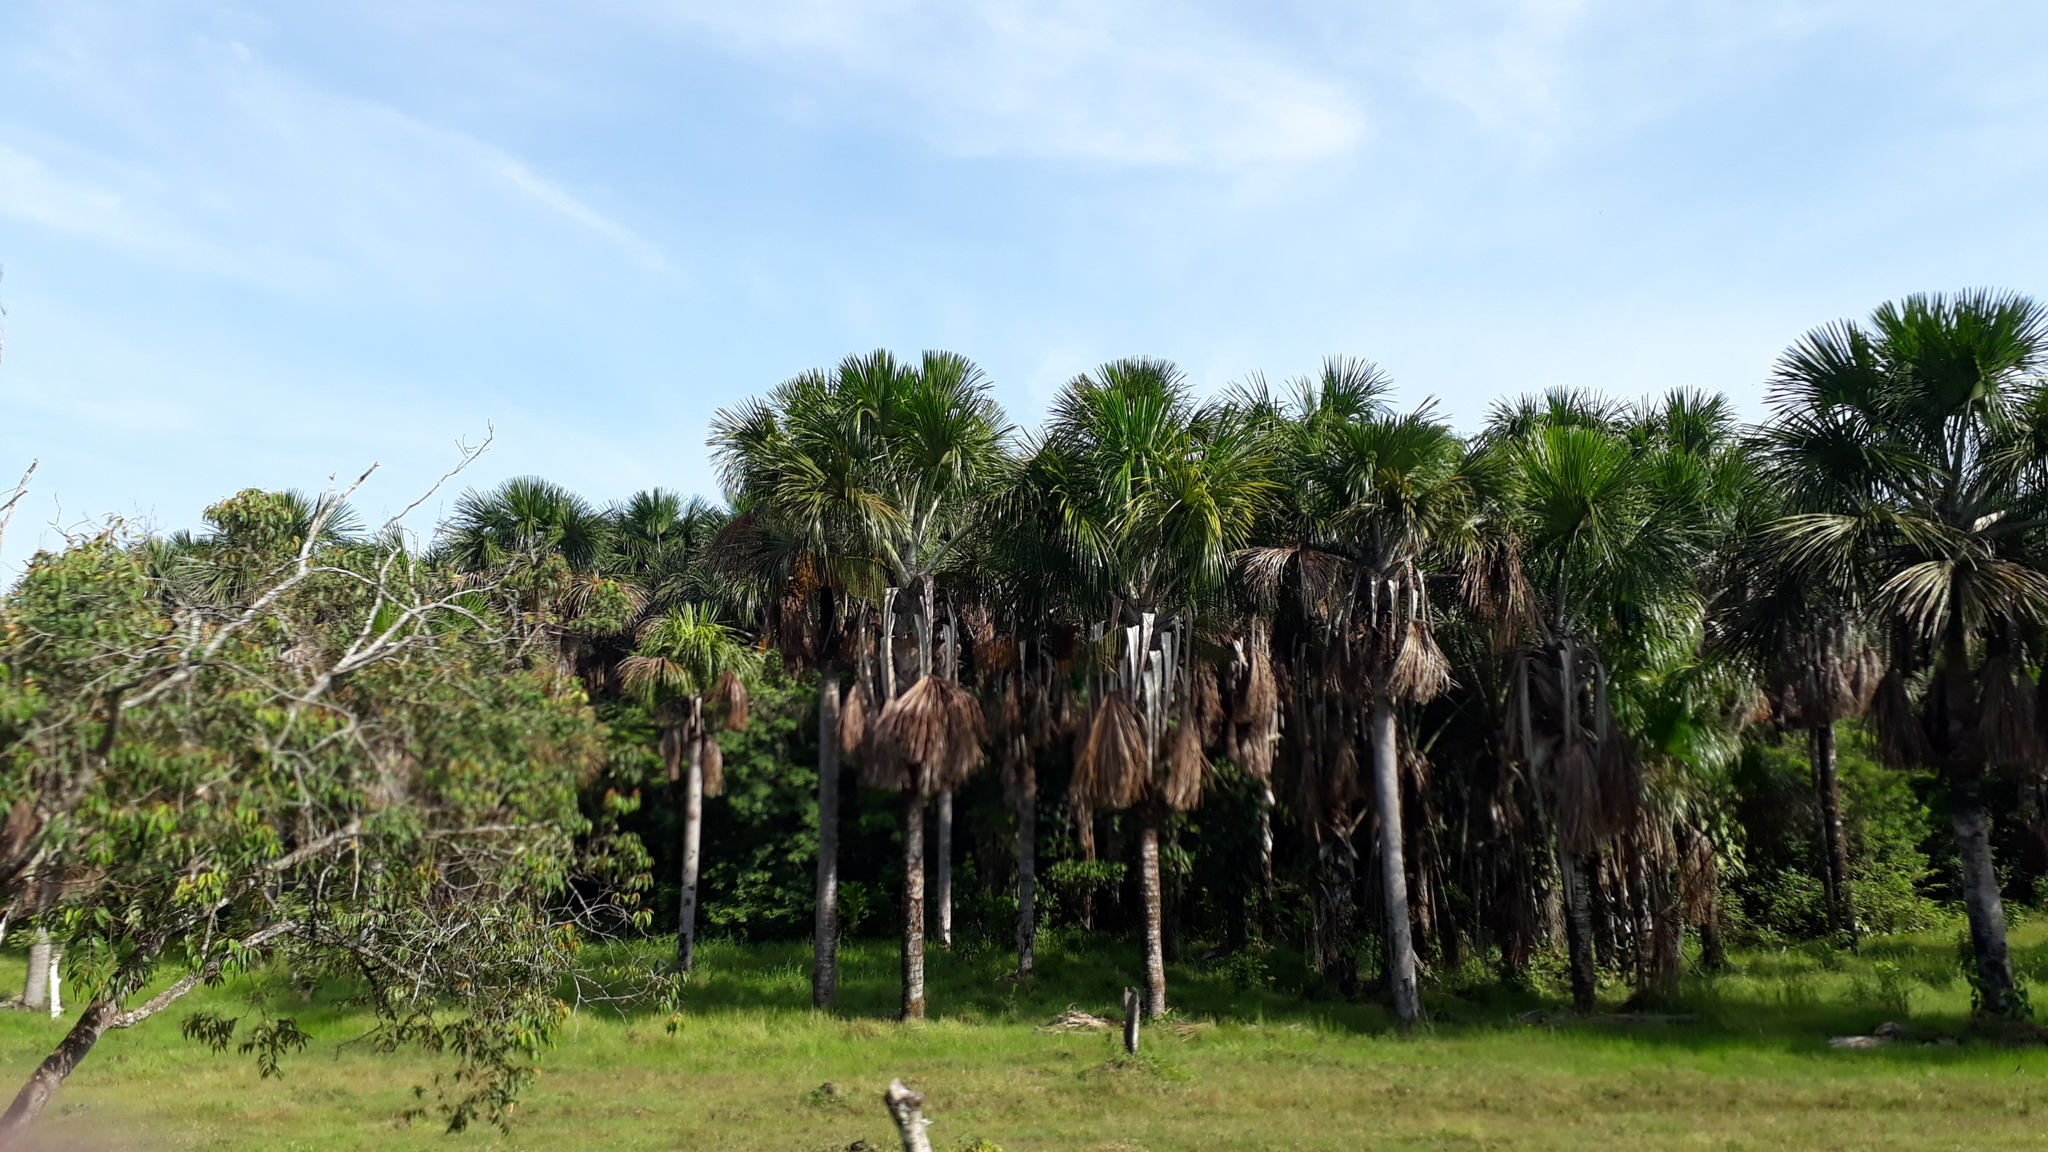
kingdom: Plantae
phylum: Tracheophyta
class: Liliopsida
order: Arecales
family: Arecaceae
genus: Mauritia
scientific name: Mauritia flexuosa
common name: Tree-of-life
